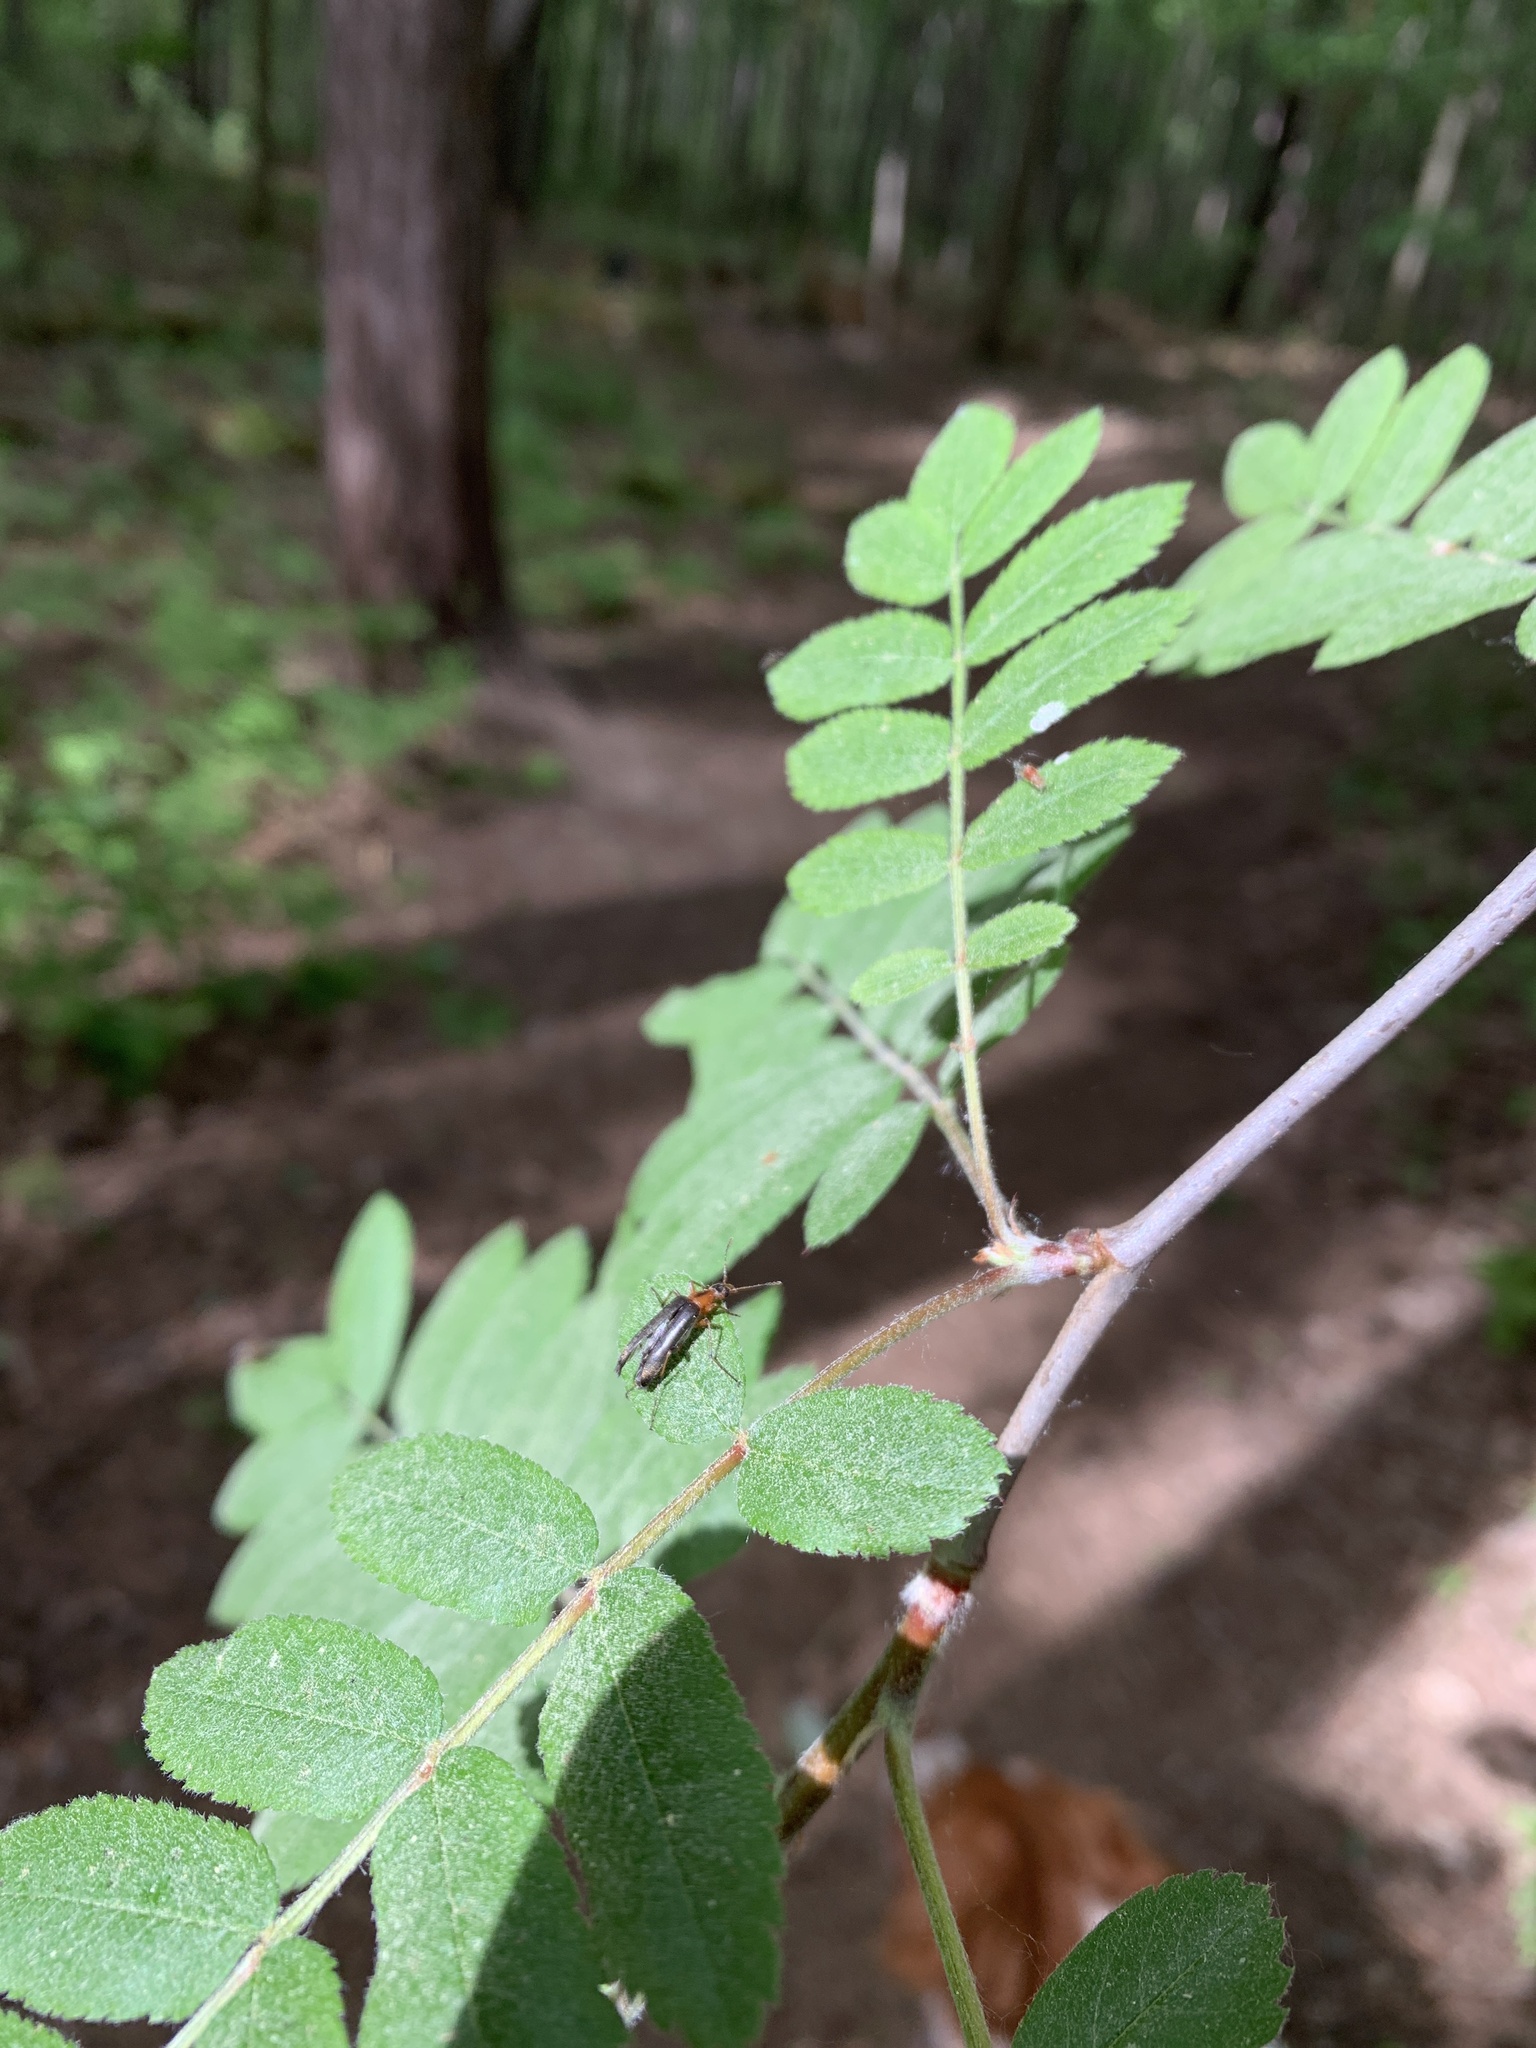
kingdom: Animalia
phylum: Arthropoda
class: Insecta
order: Coleoptera
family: Stenotrachelidae
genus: Cephaloon
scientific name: Cephaloon lepturides
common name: False leptura beetle
